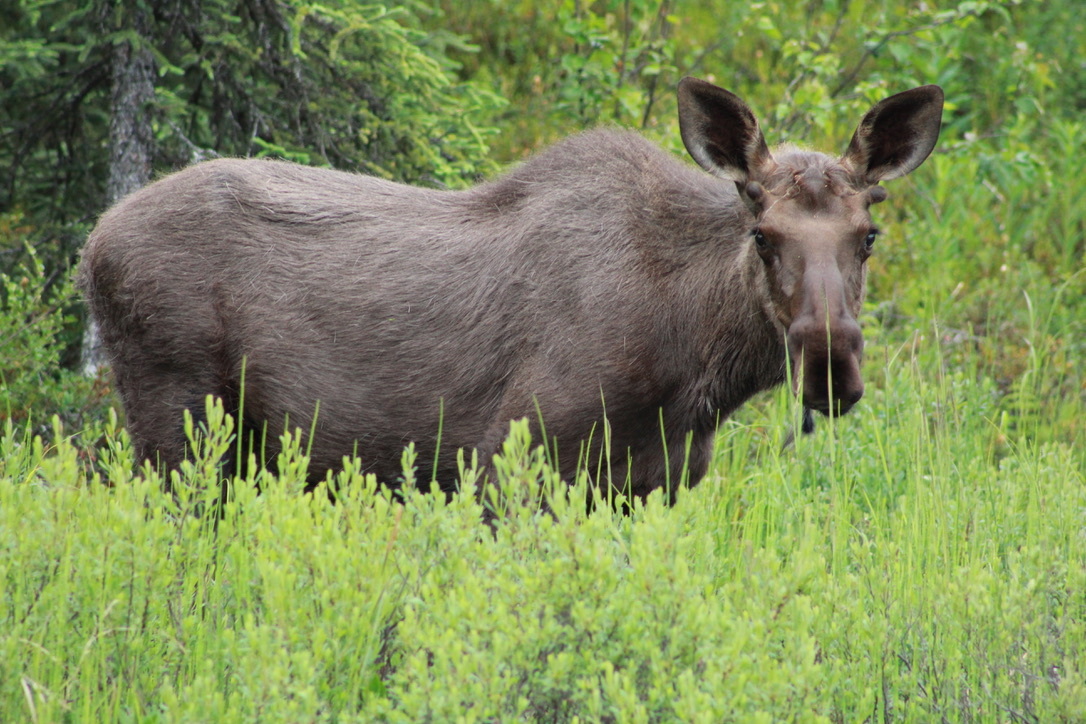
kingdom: Animalia
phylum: Chordata
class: Mammalia
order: Artiodactyla
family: Cervidae
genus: Alces
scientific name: Alces alces
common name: Moose
